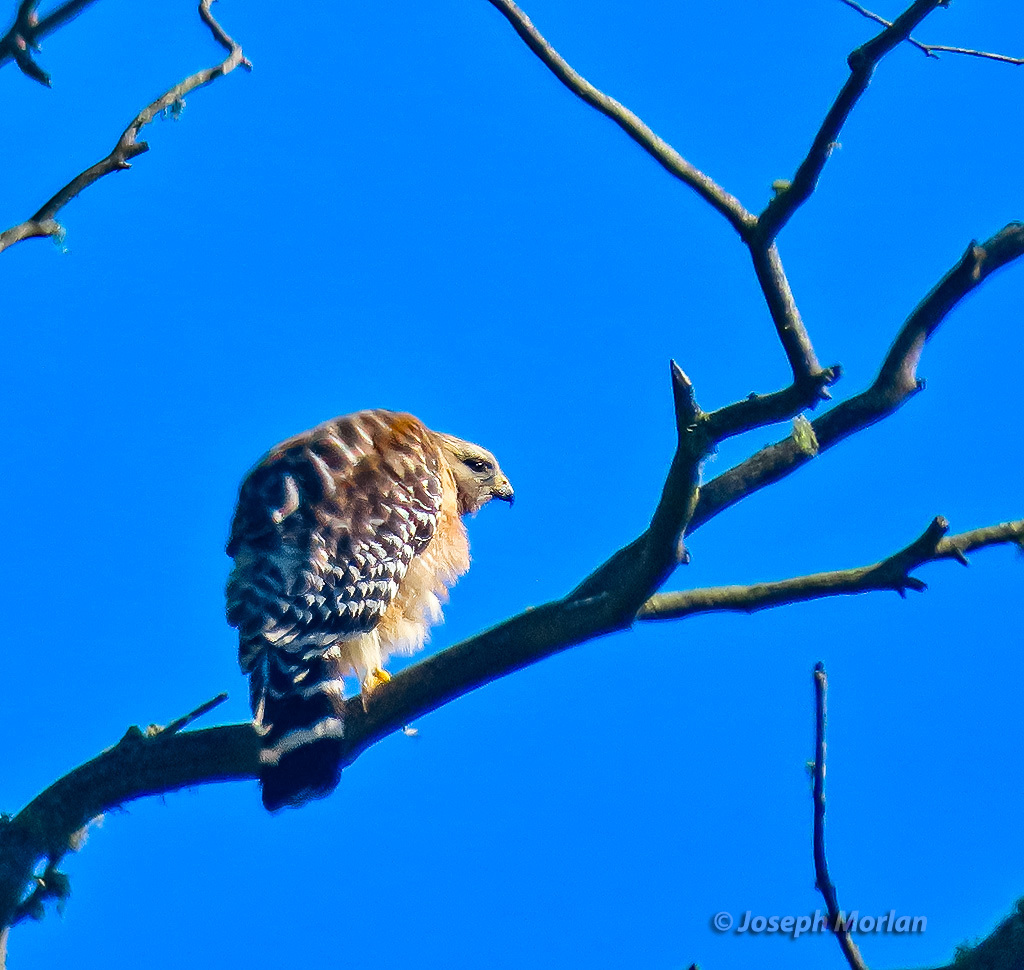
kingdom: Animalia
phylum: Chordata
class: Aves
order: Accipitriformes
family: Accipitridae
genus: Buteo
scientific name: Buteo lineatus
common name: Red-shouldered hawk
